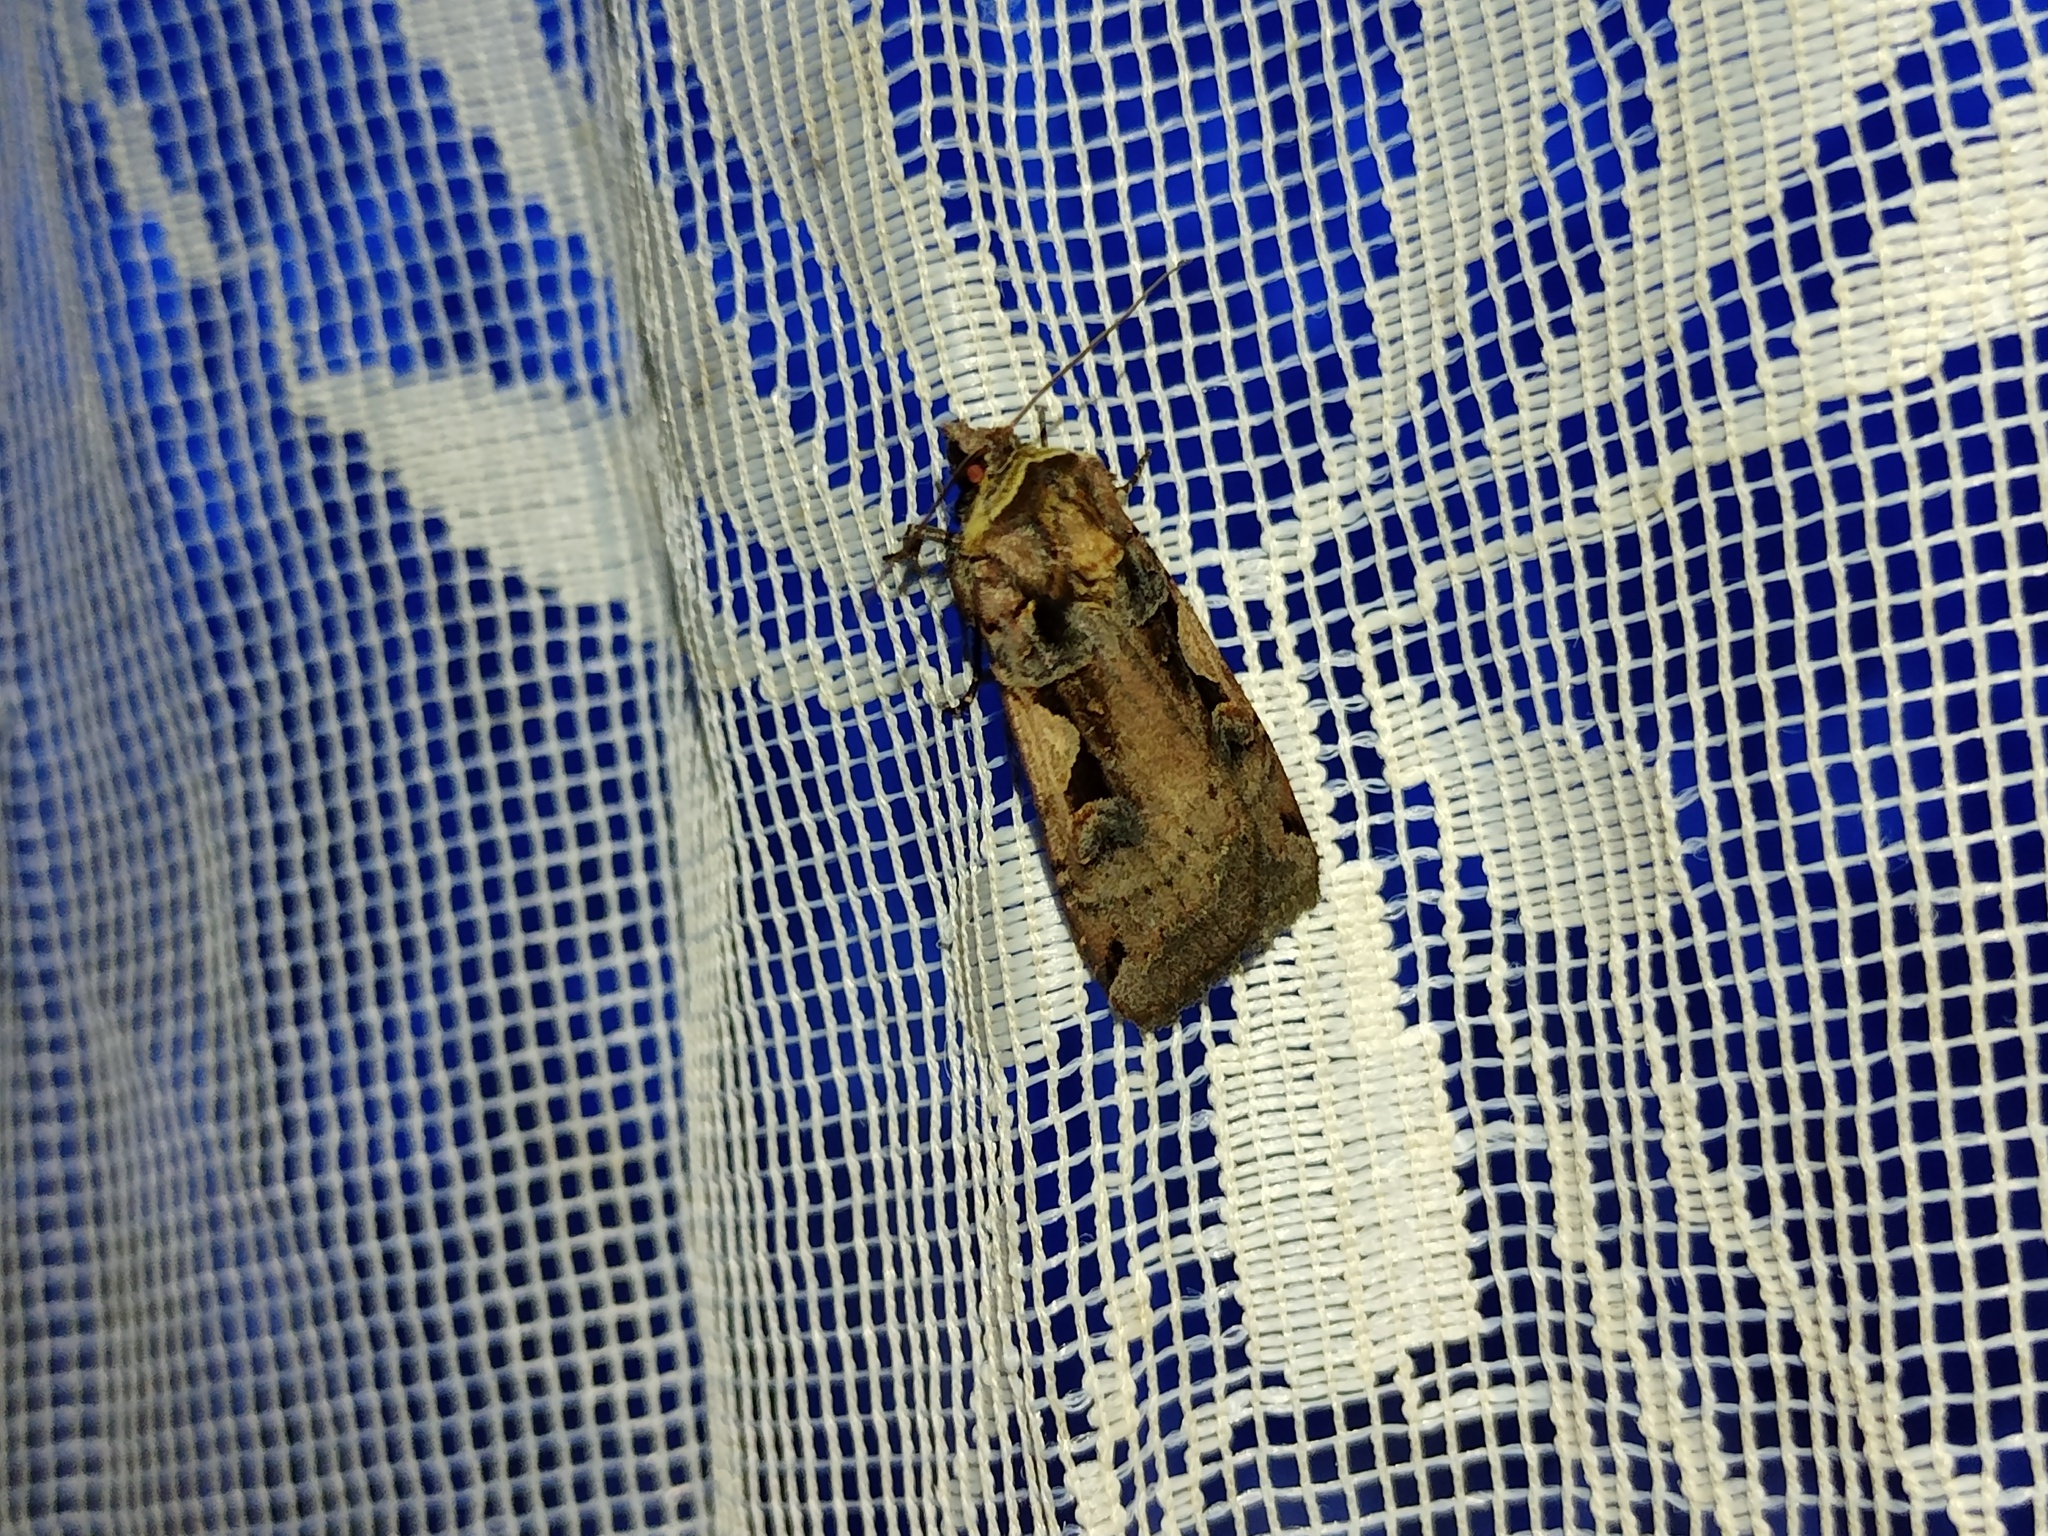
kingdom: Animalia
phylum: Arthropoda
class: Insecta
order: Lepidoptera
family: Noctuidae
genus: Xestia
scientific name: Xestia c-nigrum
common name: Setaceous hebrew character
